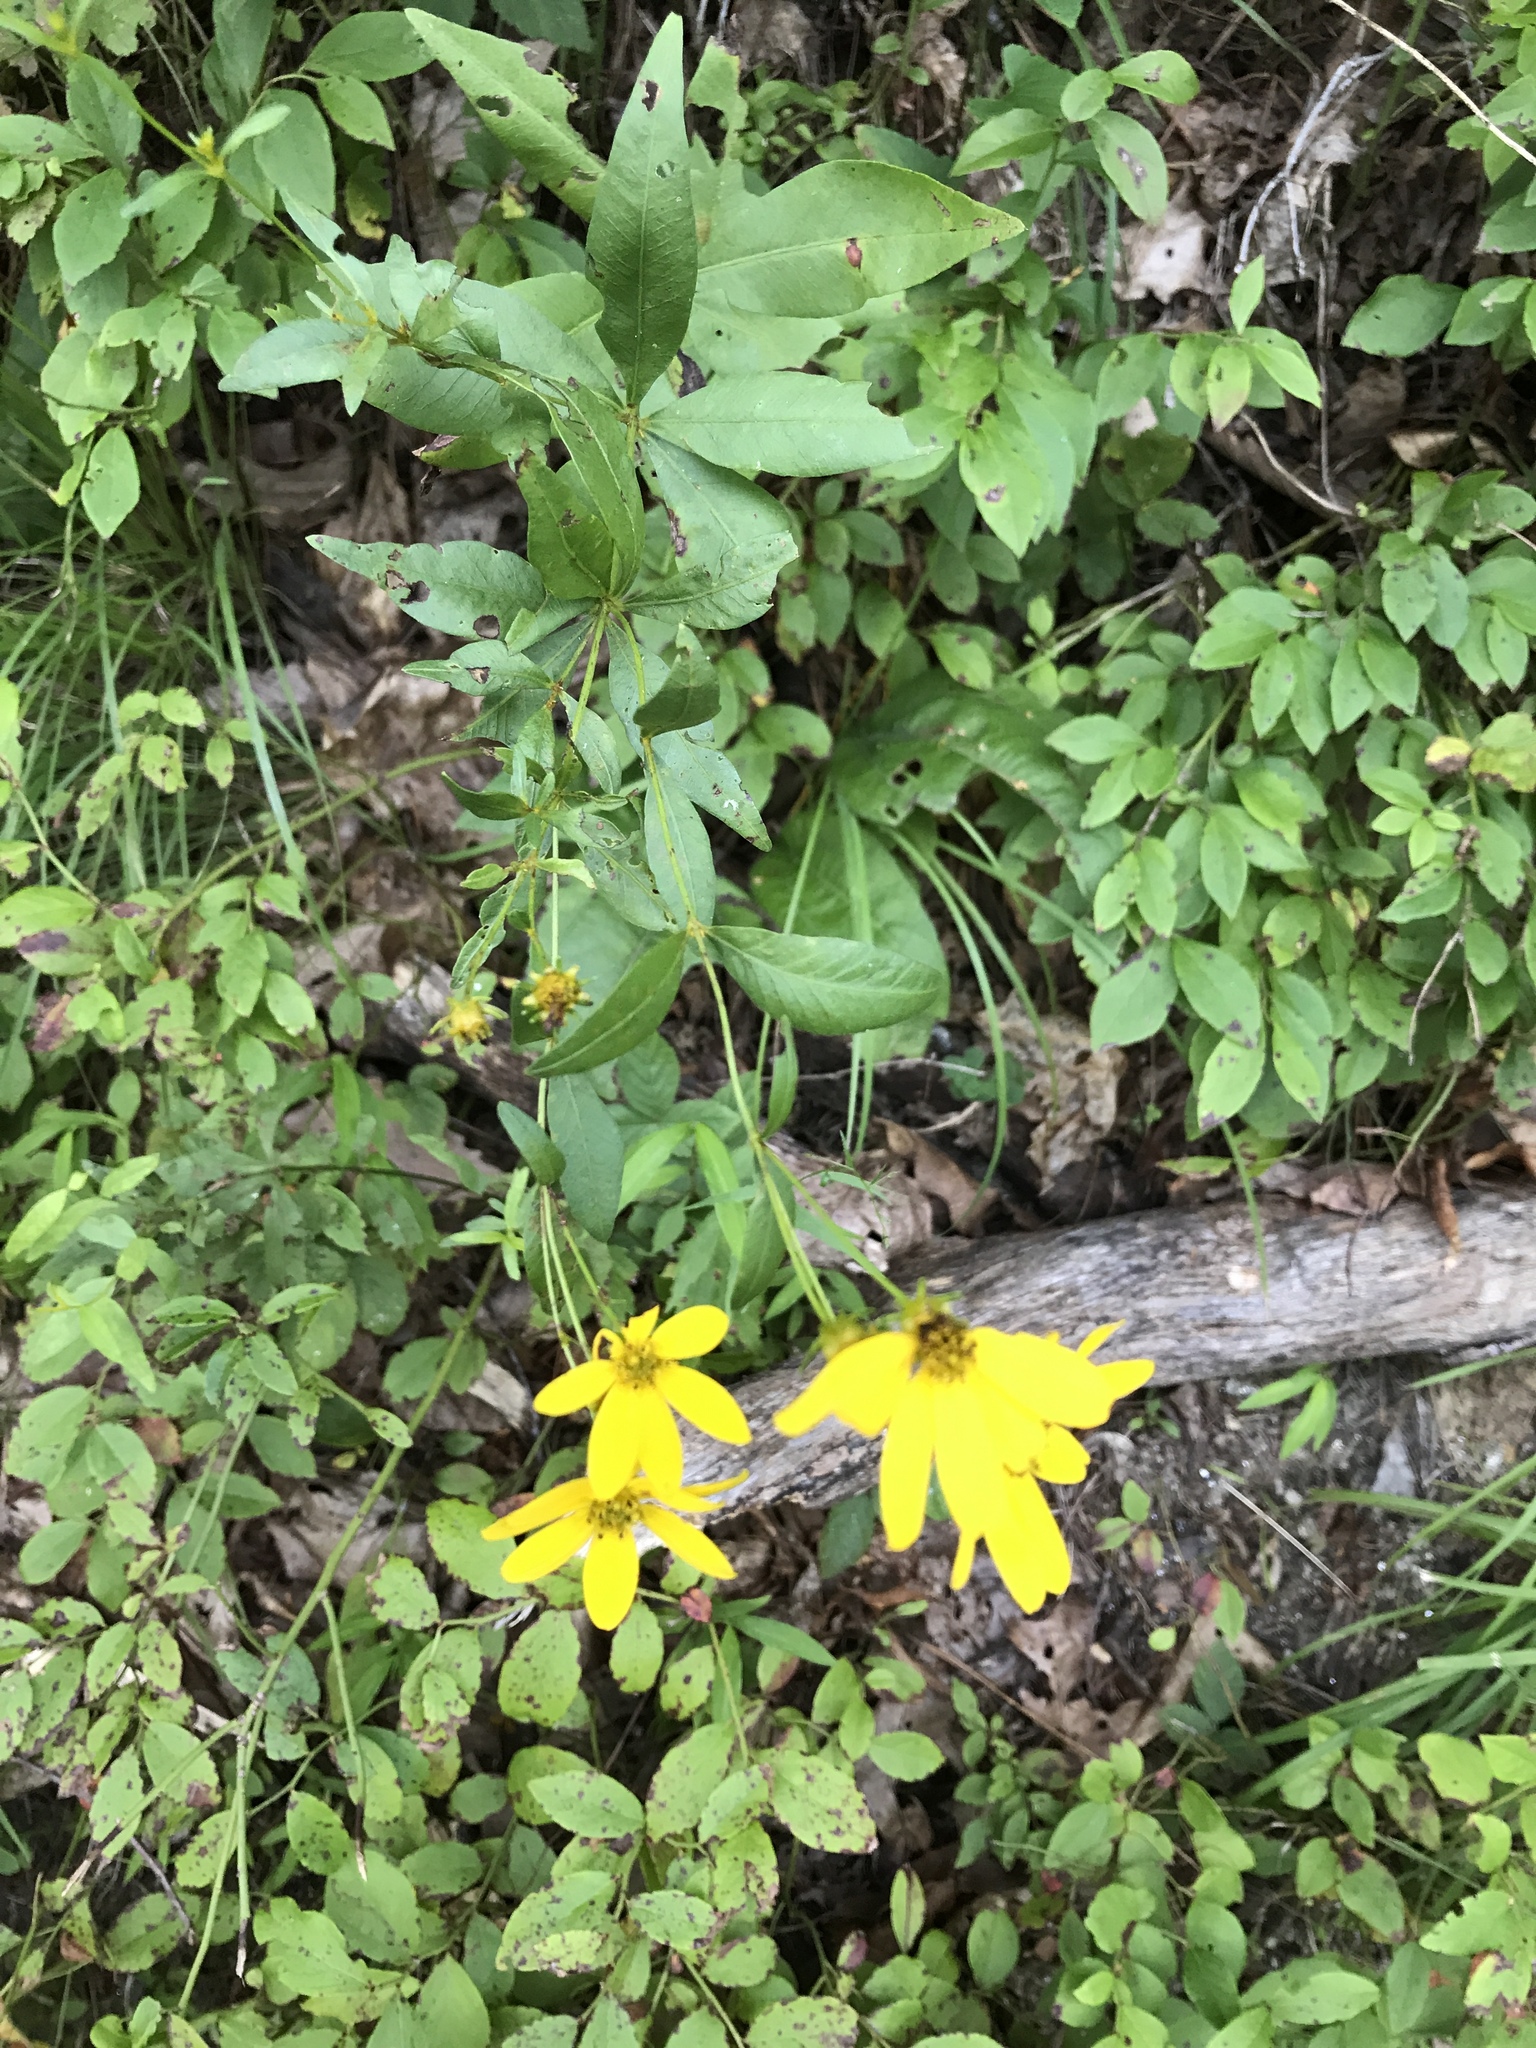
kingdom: Plantae
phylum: Tracheophyta
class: Magnoliopsida
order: Asterales
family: Asteraceae
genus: Coreopsis
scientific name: Coreopsis major
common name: Forest tickseed
